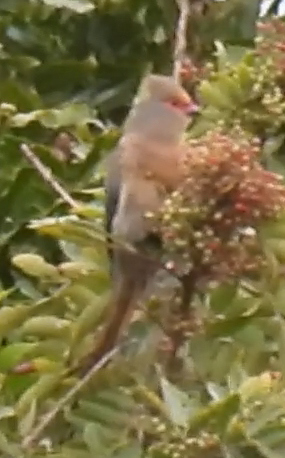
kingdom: Animalia
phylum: Chordata
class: Aves
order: Coliiformes
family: Coliidae
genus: Urocolius
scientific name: Urocolius indicus
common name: Red-faced mousebird
